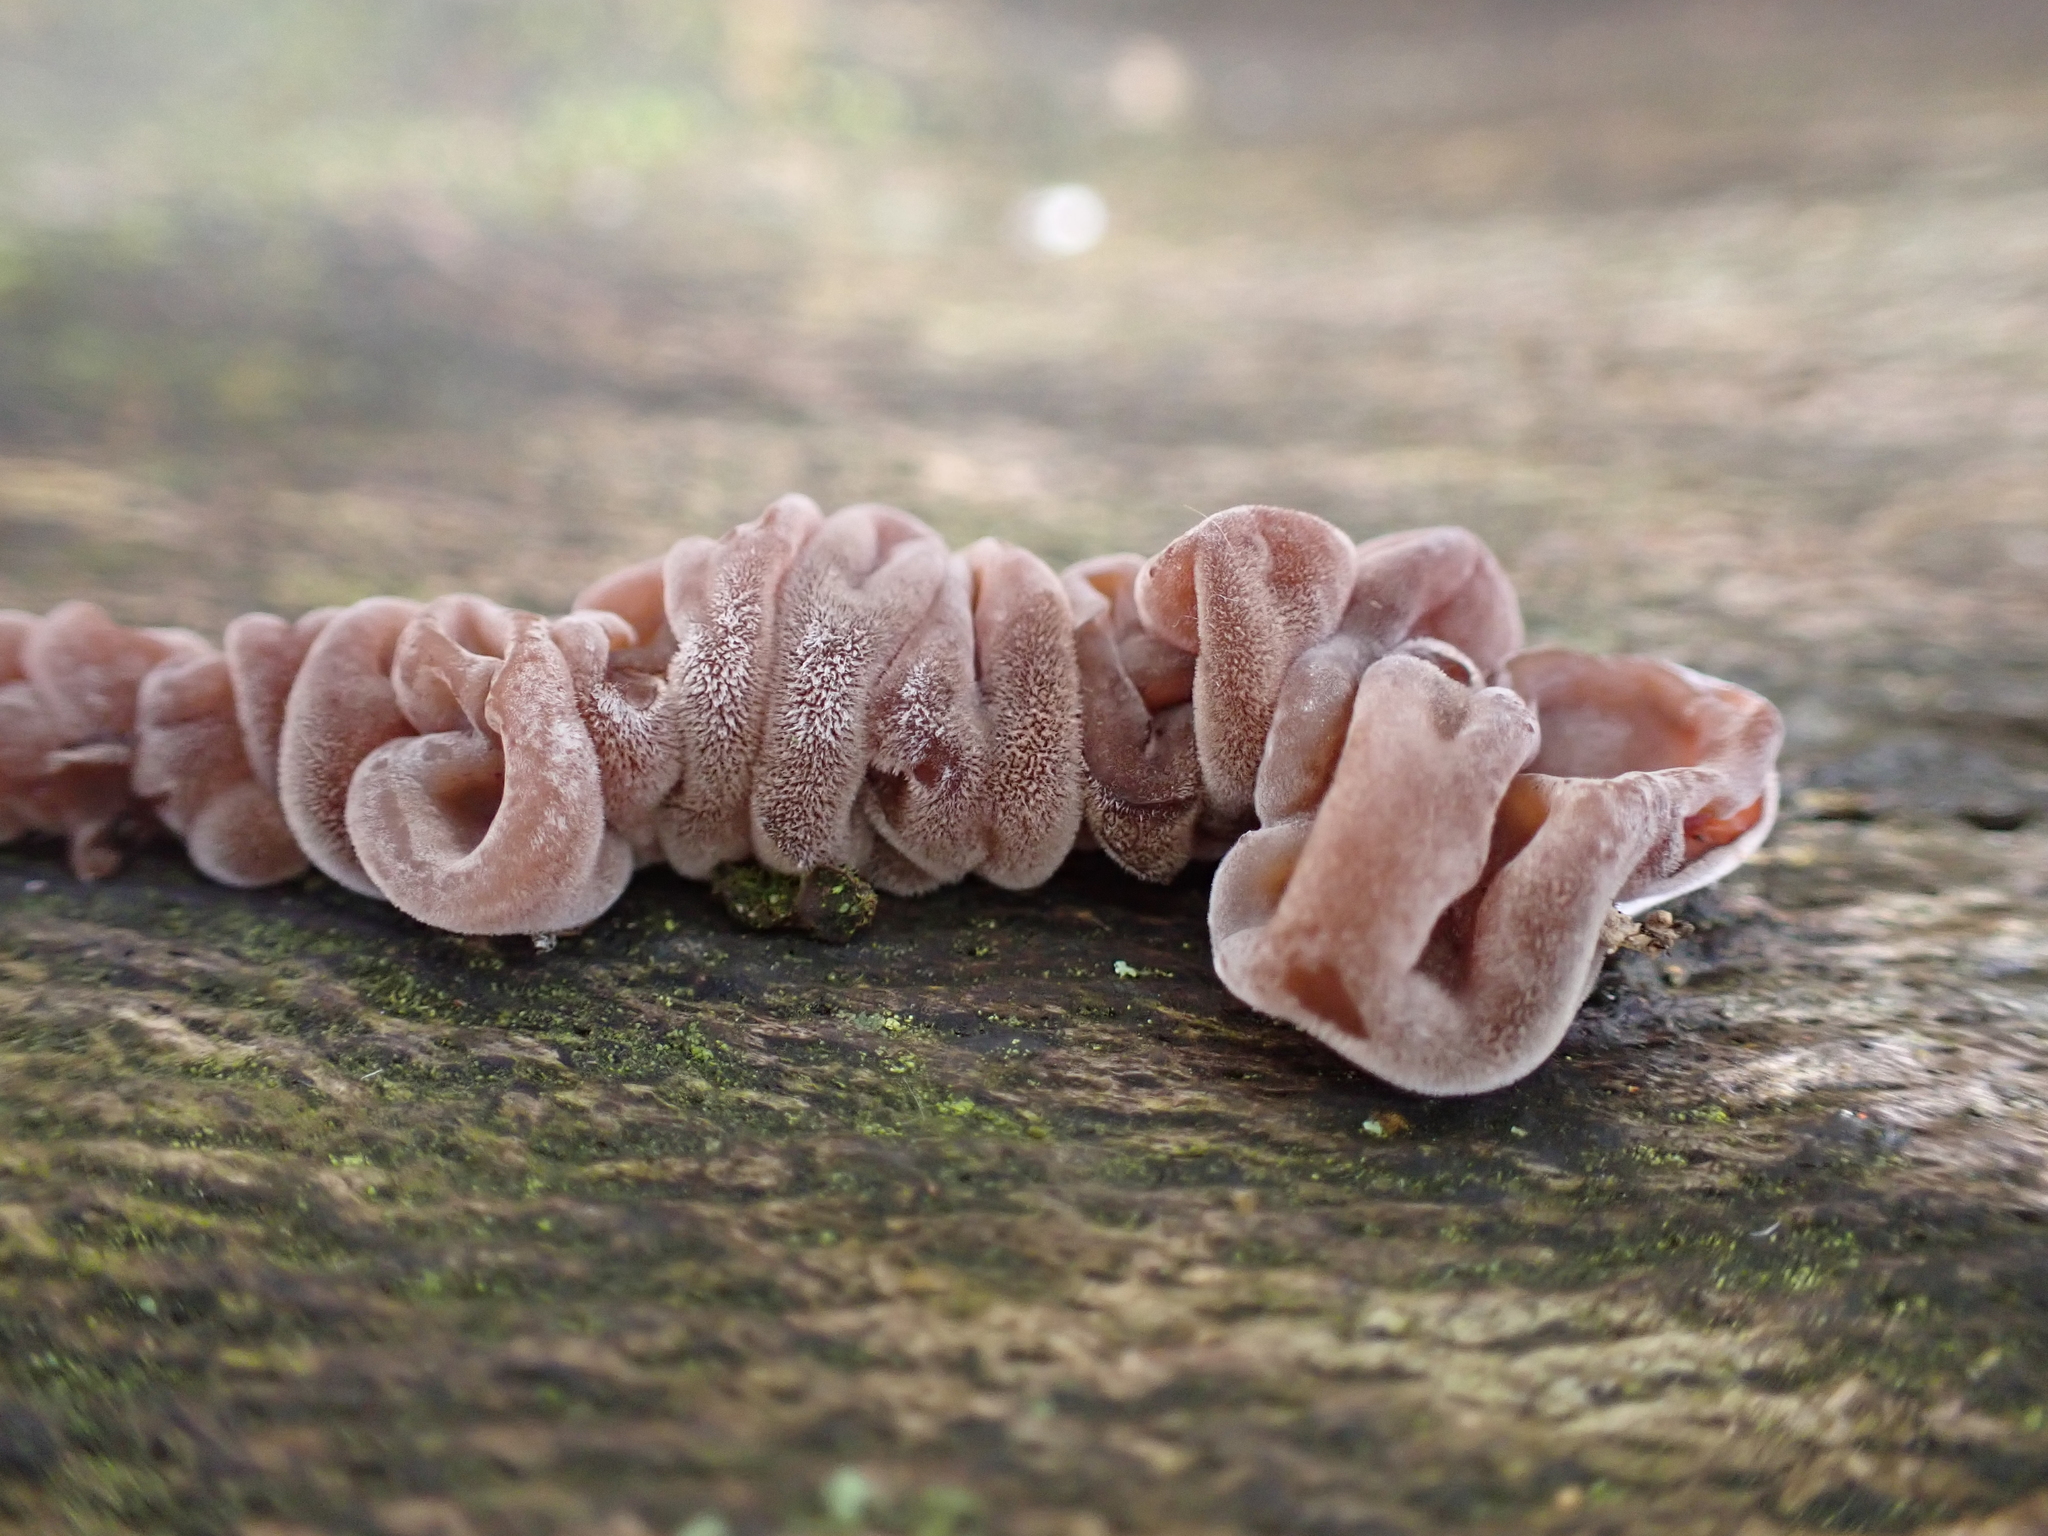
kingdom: Fungi
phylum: Basidiomycota
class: Agaricomycetes
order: Auriculariales
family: Auriculariaceae
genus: Auricularia
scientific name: Auricularia auricula-judae
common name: Jelly ear
